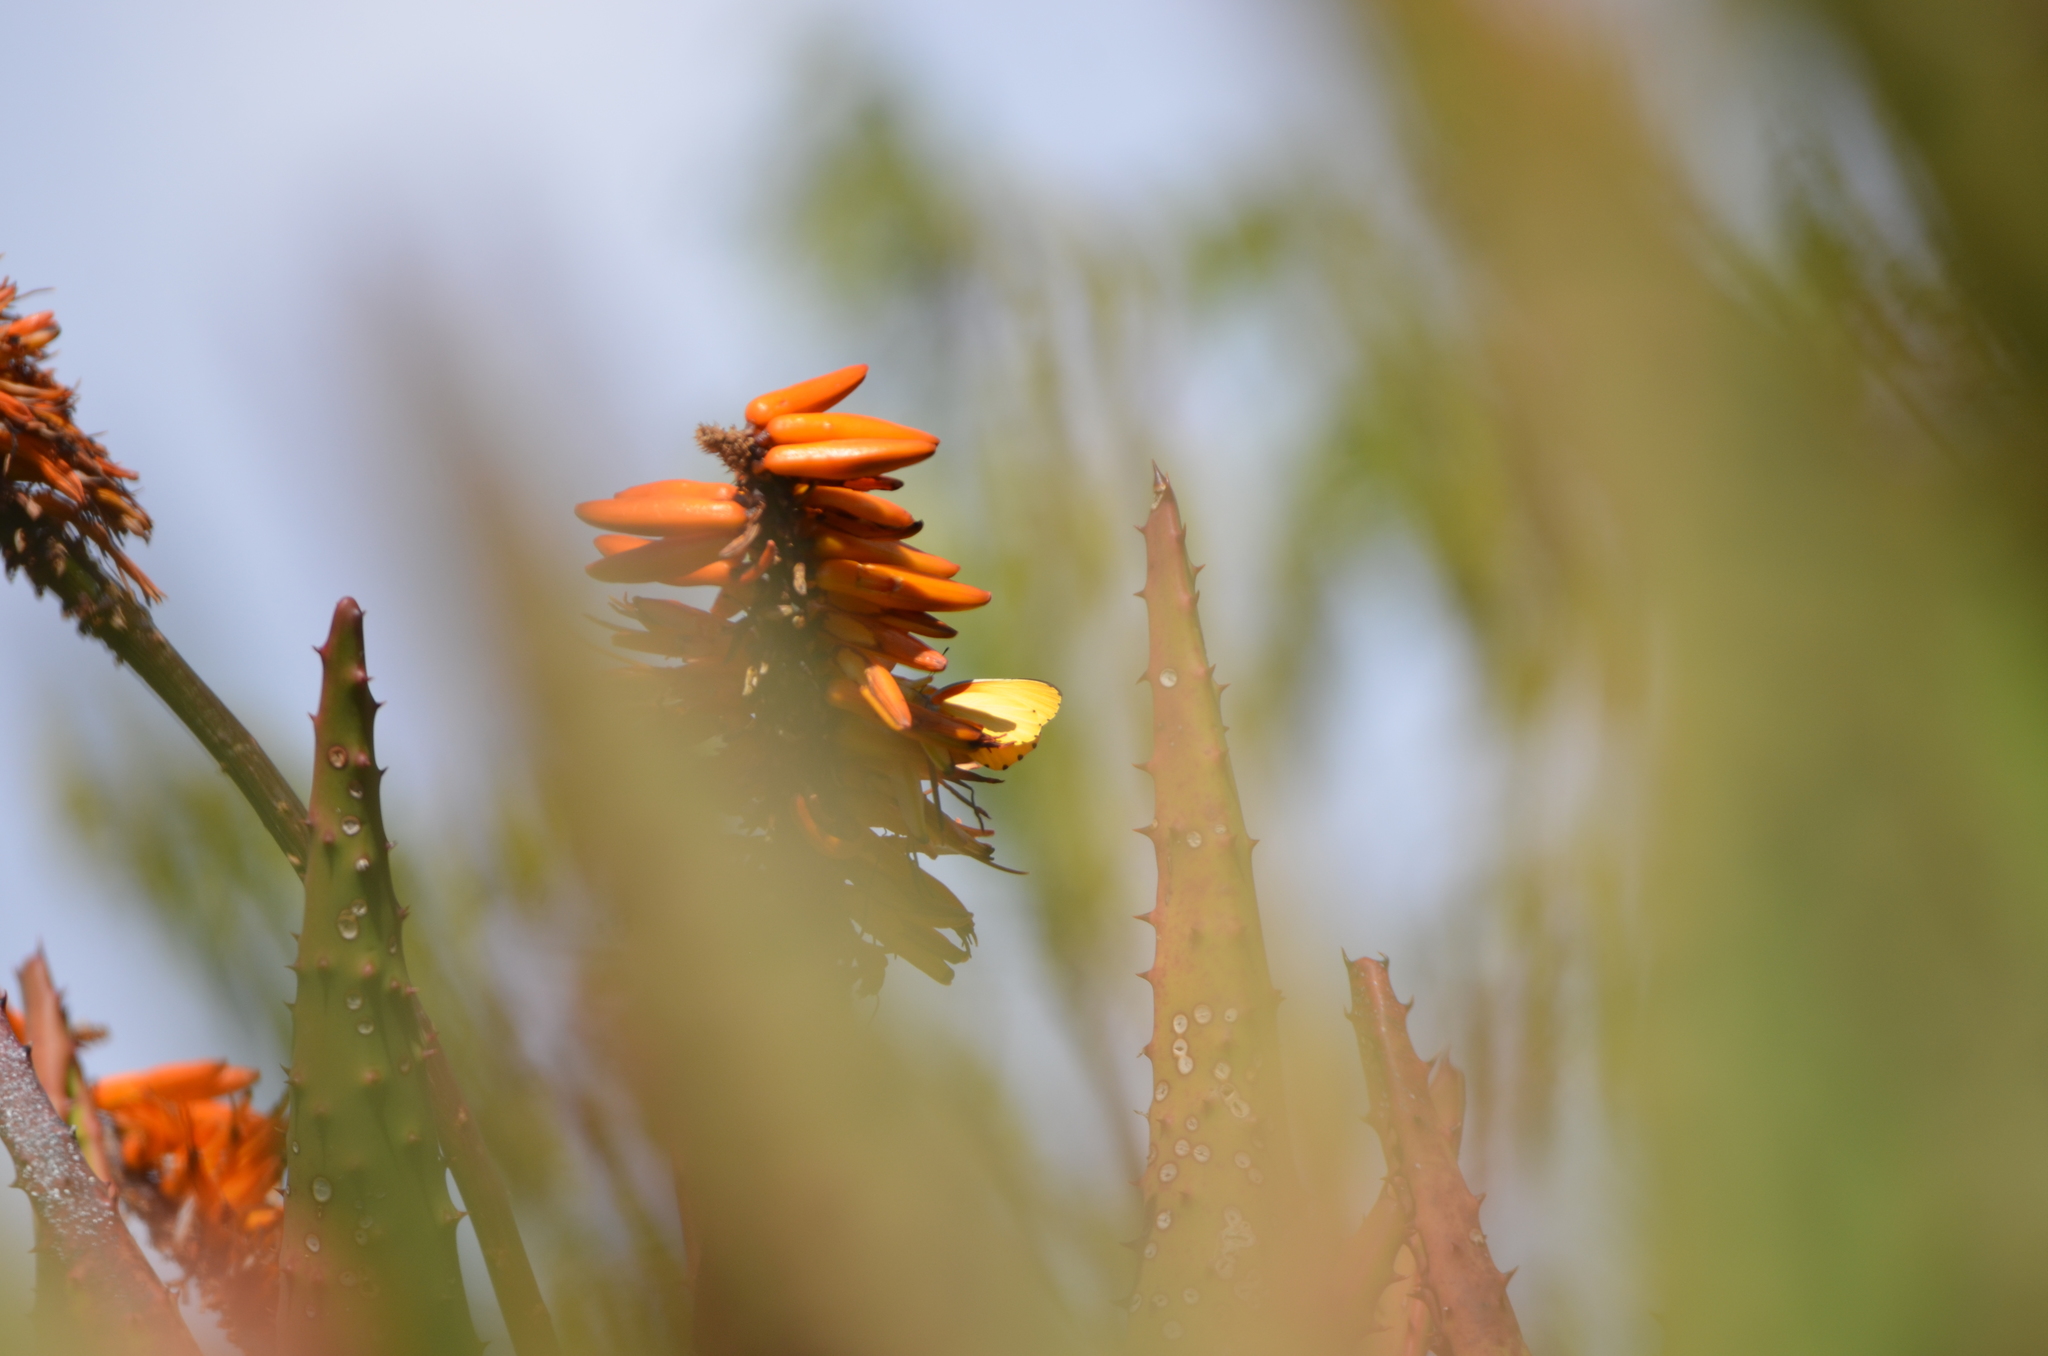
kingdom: Animalia
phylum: Arthropoda
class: Insecta
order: Lepidoptera
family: Pieridae
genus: Mylothris
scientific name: Mylothris agathina
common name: Eastern dotted border
